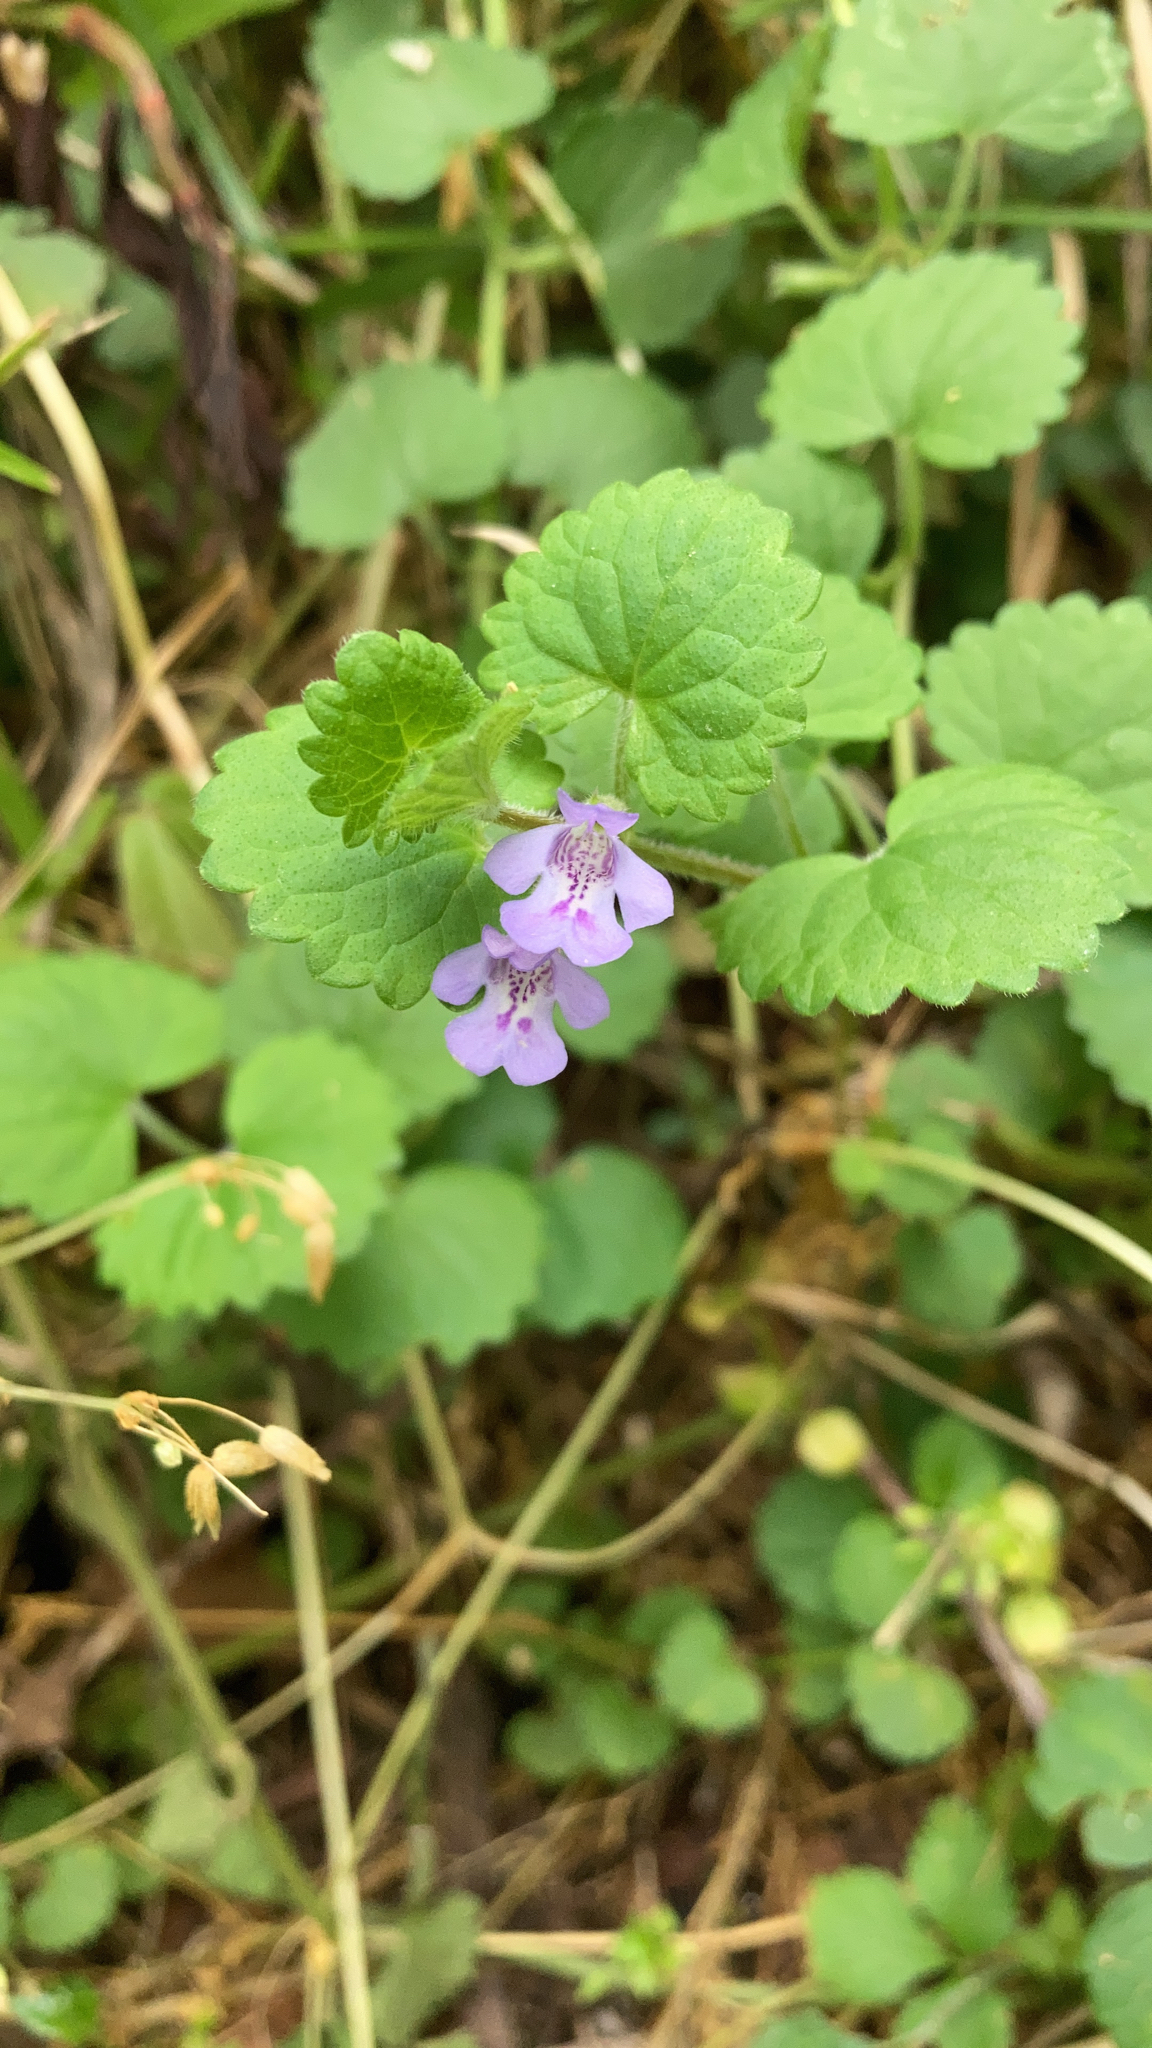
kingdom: Plantae
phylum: Tracheophyta
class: Magnoliopsida
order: Lamiales
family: Lamiaceae
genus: Glechoma
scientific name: Glechoma hederacea
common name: Ground ivy
